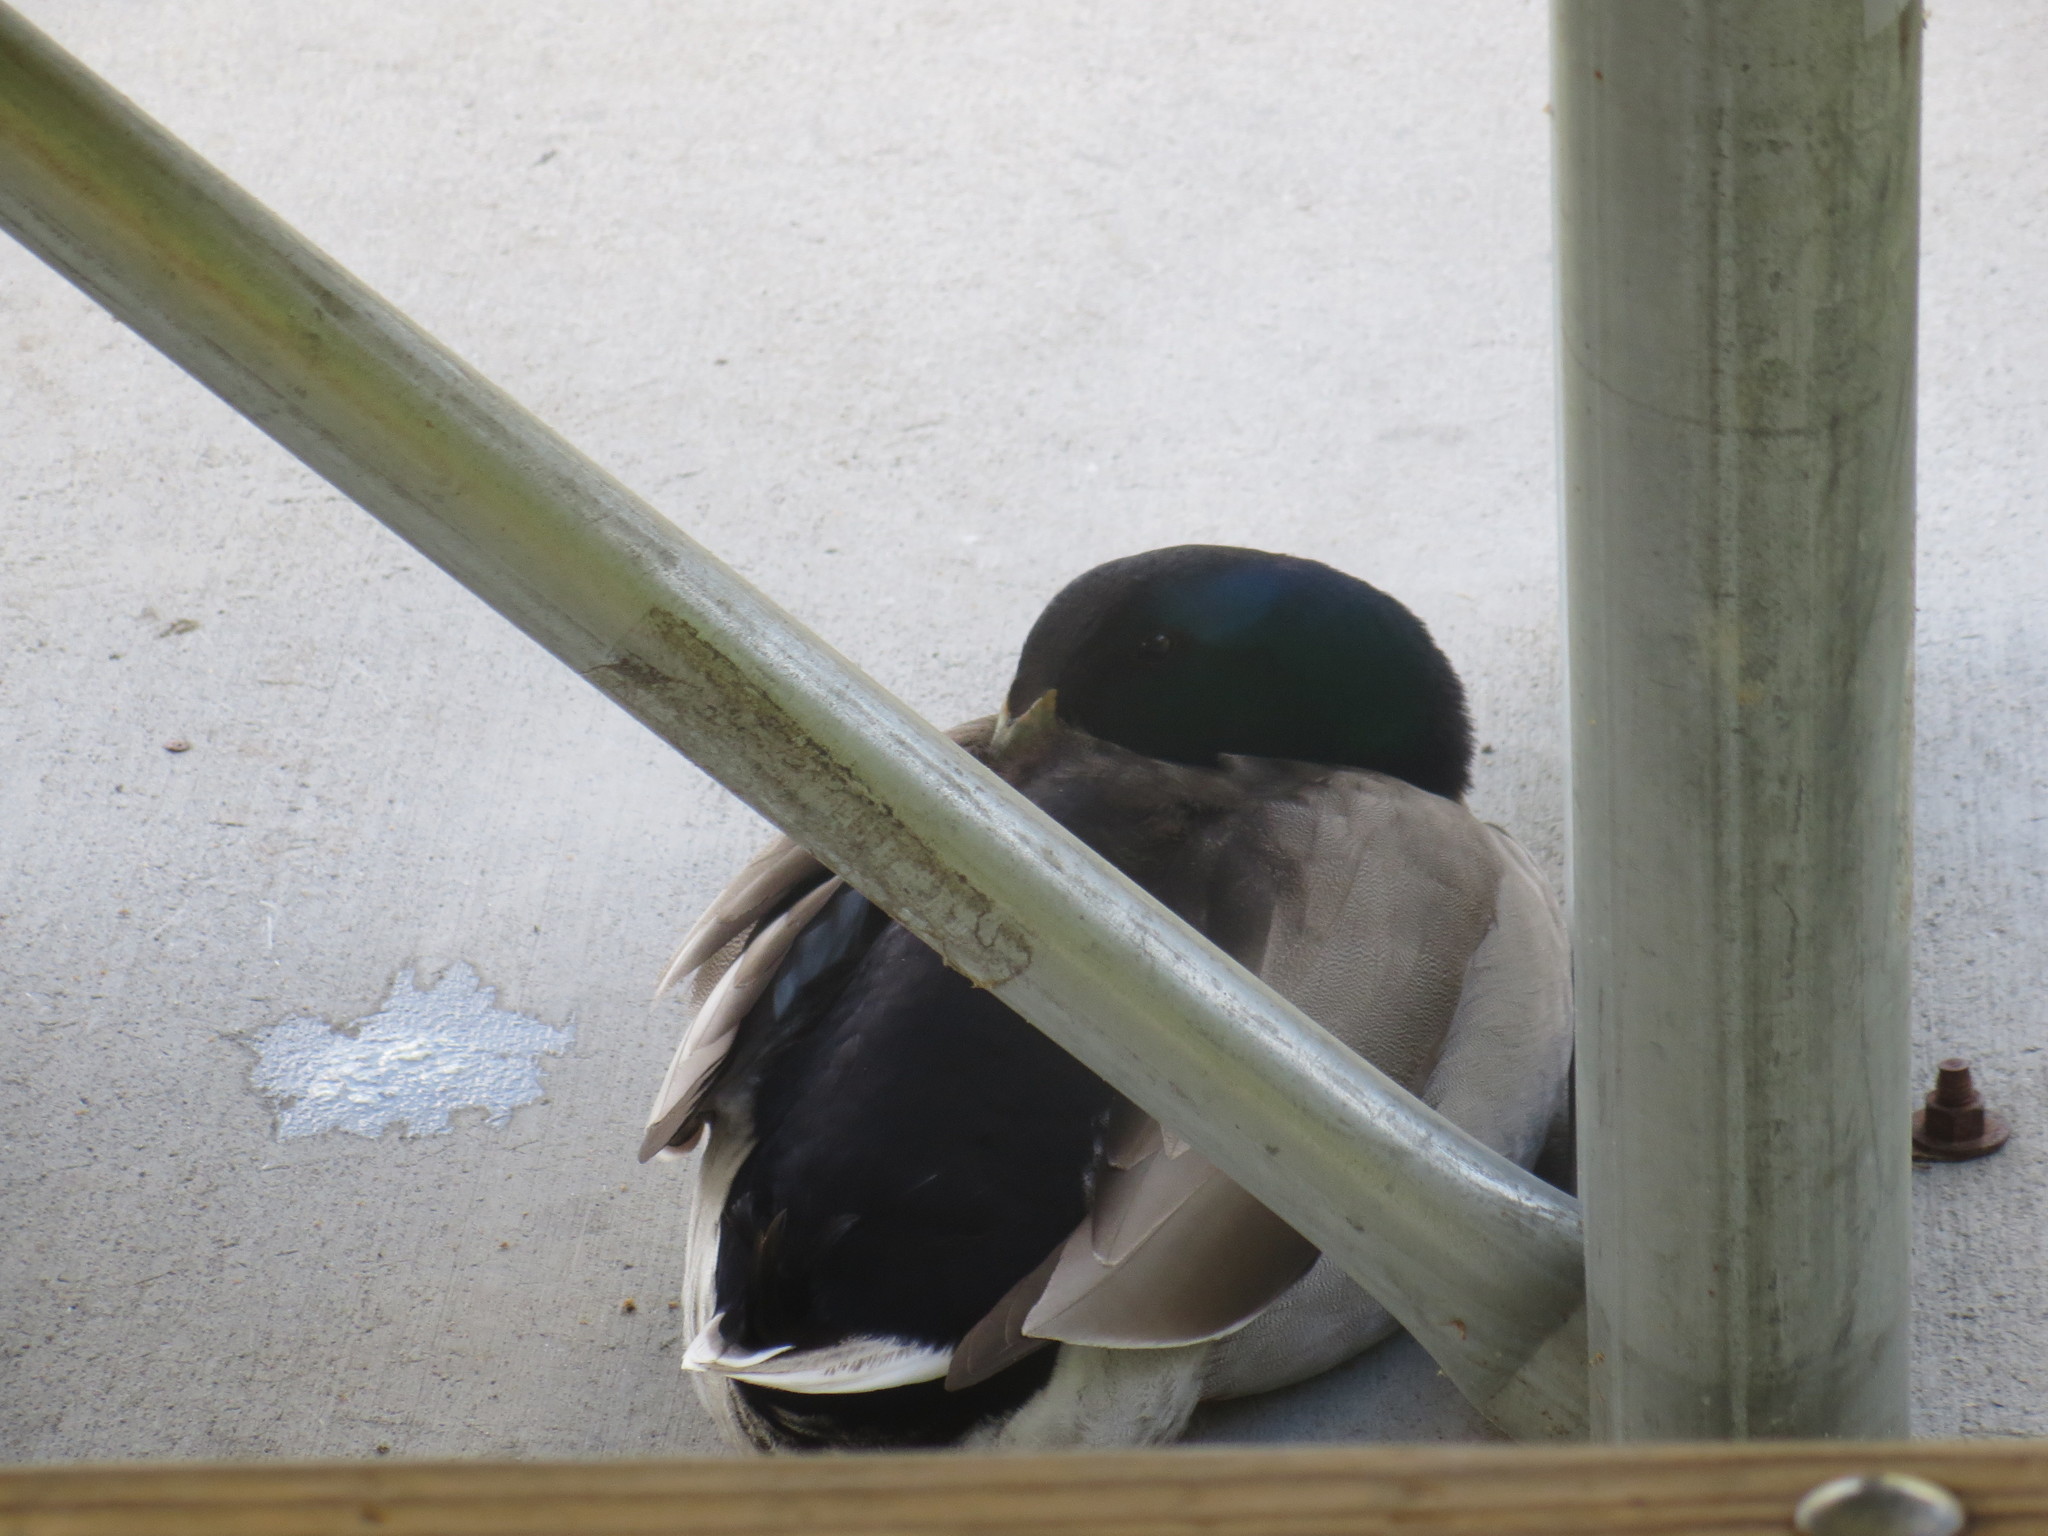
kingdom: Animalia
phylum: Chordata
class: Aves
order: Anseriformes
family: Anatidae
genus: Anas
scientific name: Anas platyrhynchos
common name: Mallard
